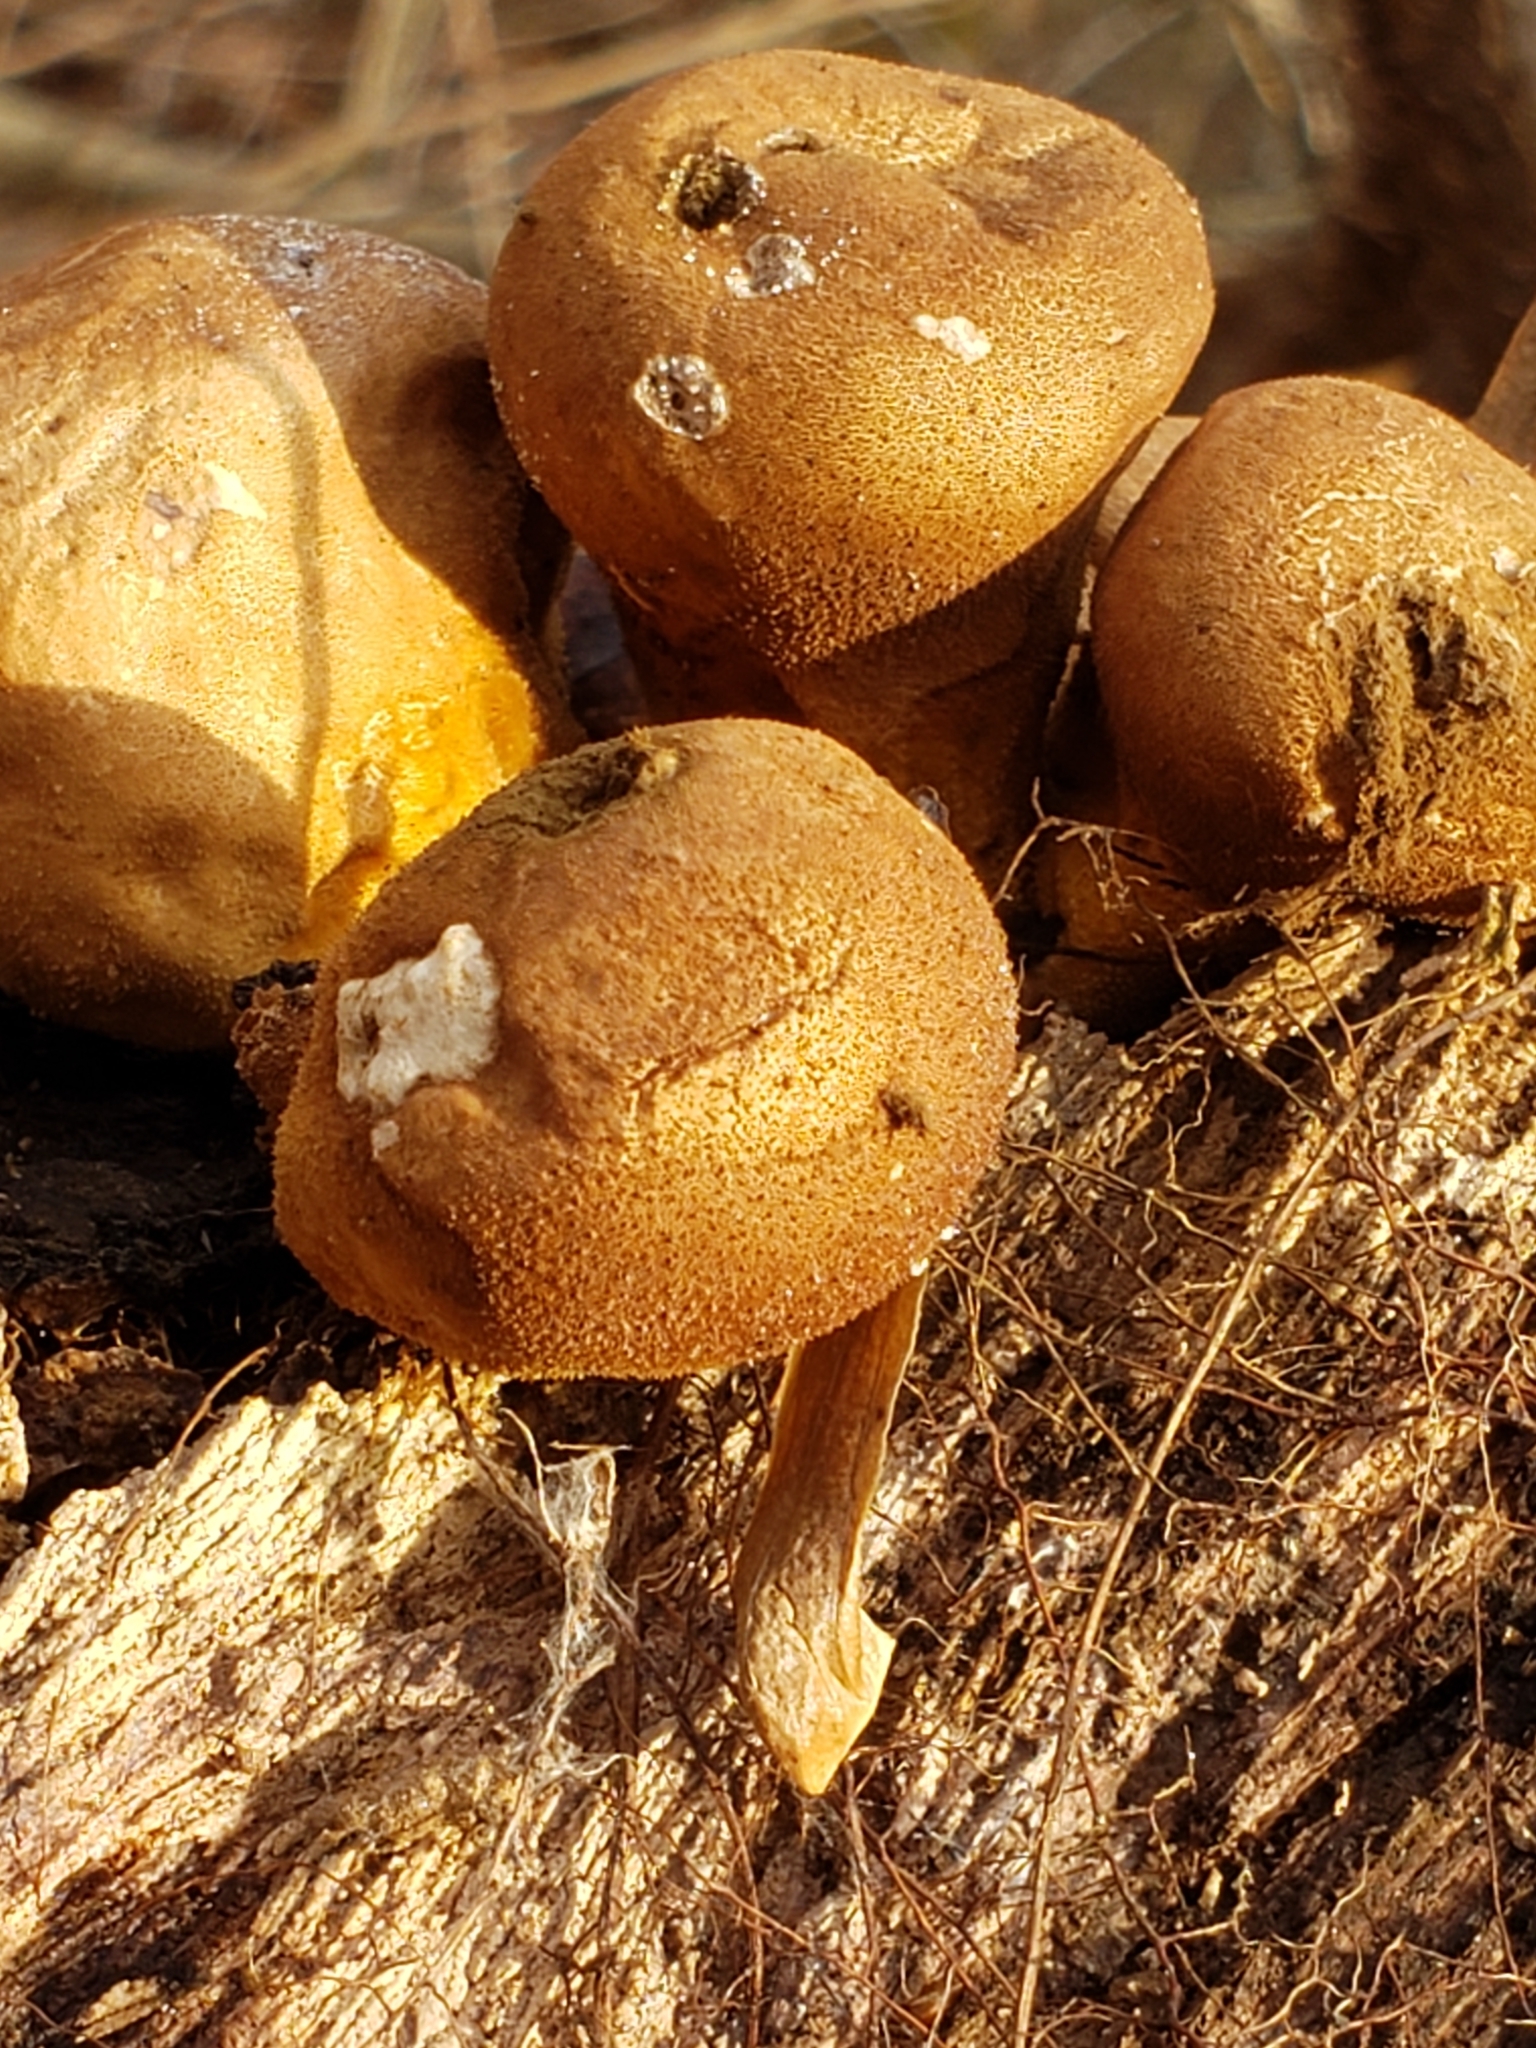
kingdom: Fungi
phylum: Basidiomycota
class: Agaricomycetes
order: Agaricales
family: Lycoperdaceae
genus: Apioperdon
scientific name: Apioperdon pyriforme
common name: Pear-shaped puffball
